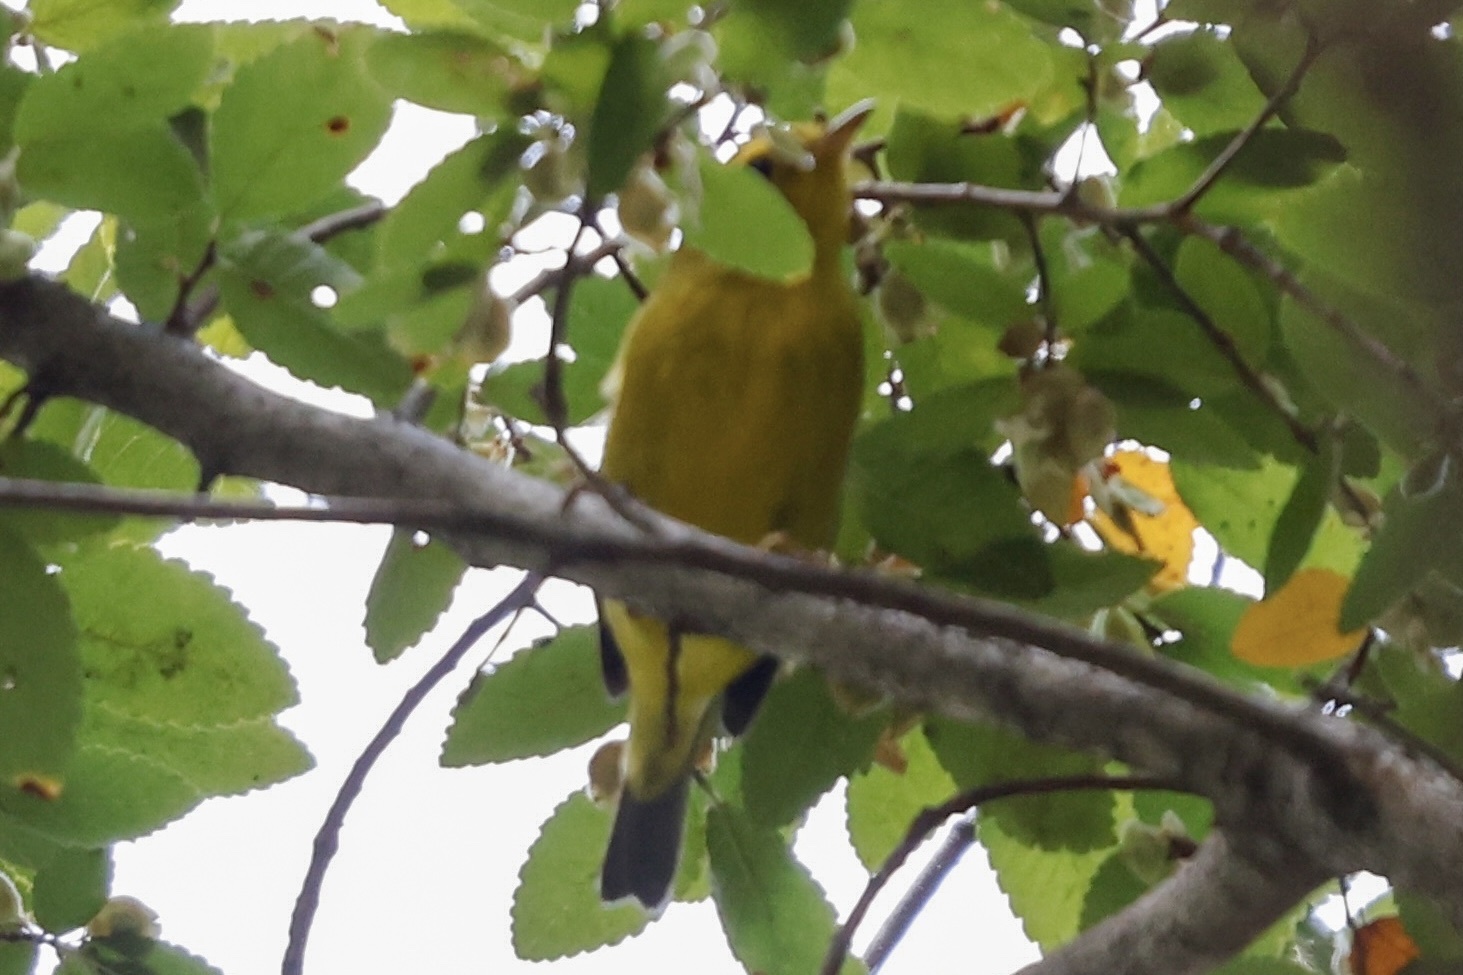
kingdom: Animalia
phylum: Chordata
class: Aves
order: Passeriformes
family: Parulidae
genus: Cardellina
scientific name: Cardellina pusilla
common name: Wilson's warbler
